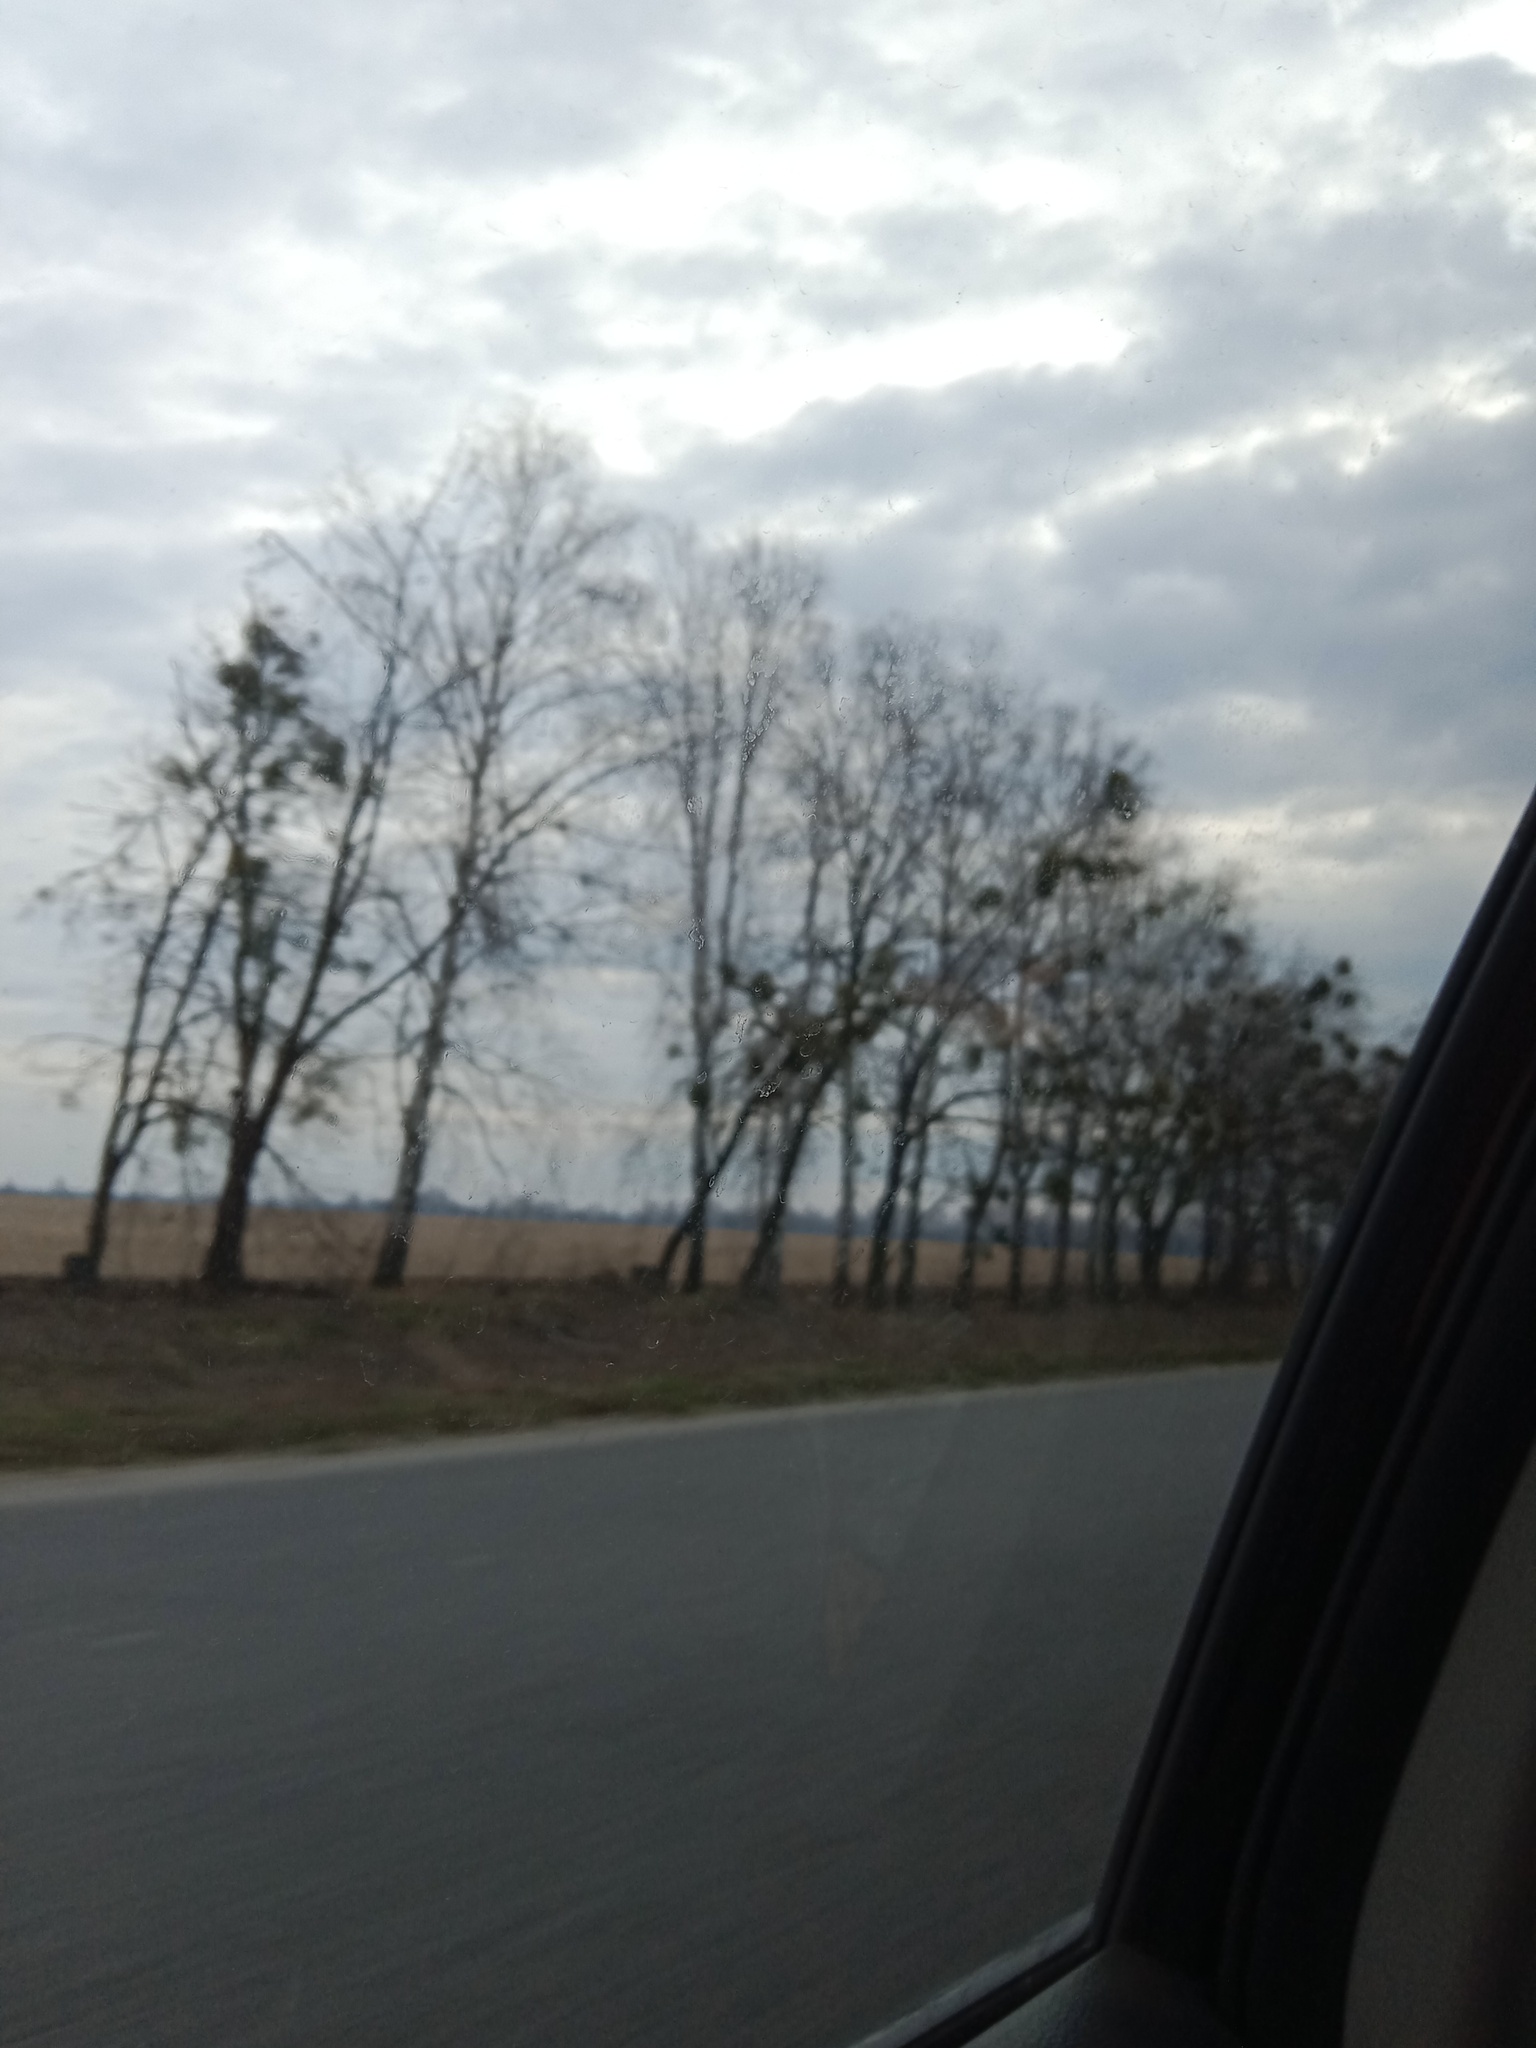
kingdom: Plantae
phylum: Tracheophyta
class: Magnoliopsida
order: Santalales
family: Viscaceae
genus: Viscum
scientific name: Viscum album
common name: Mistletoe
